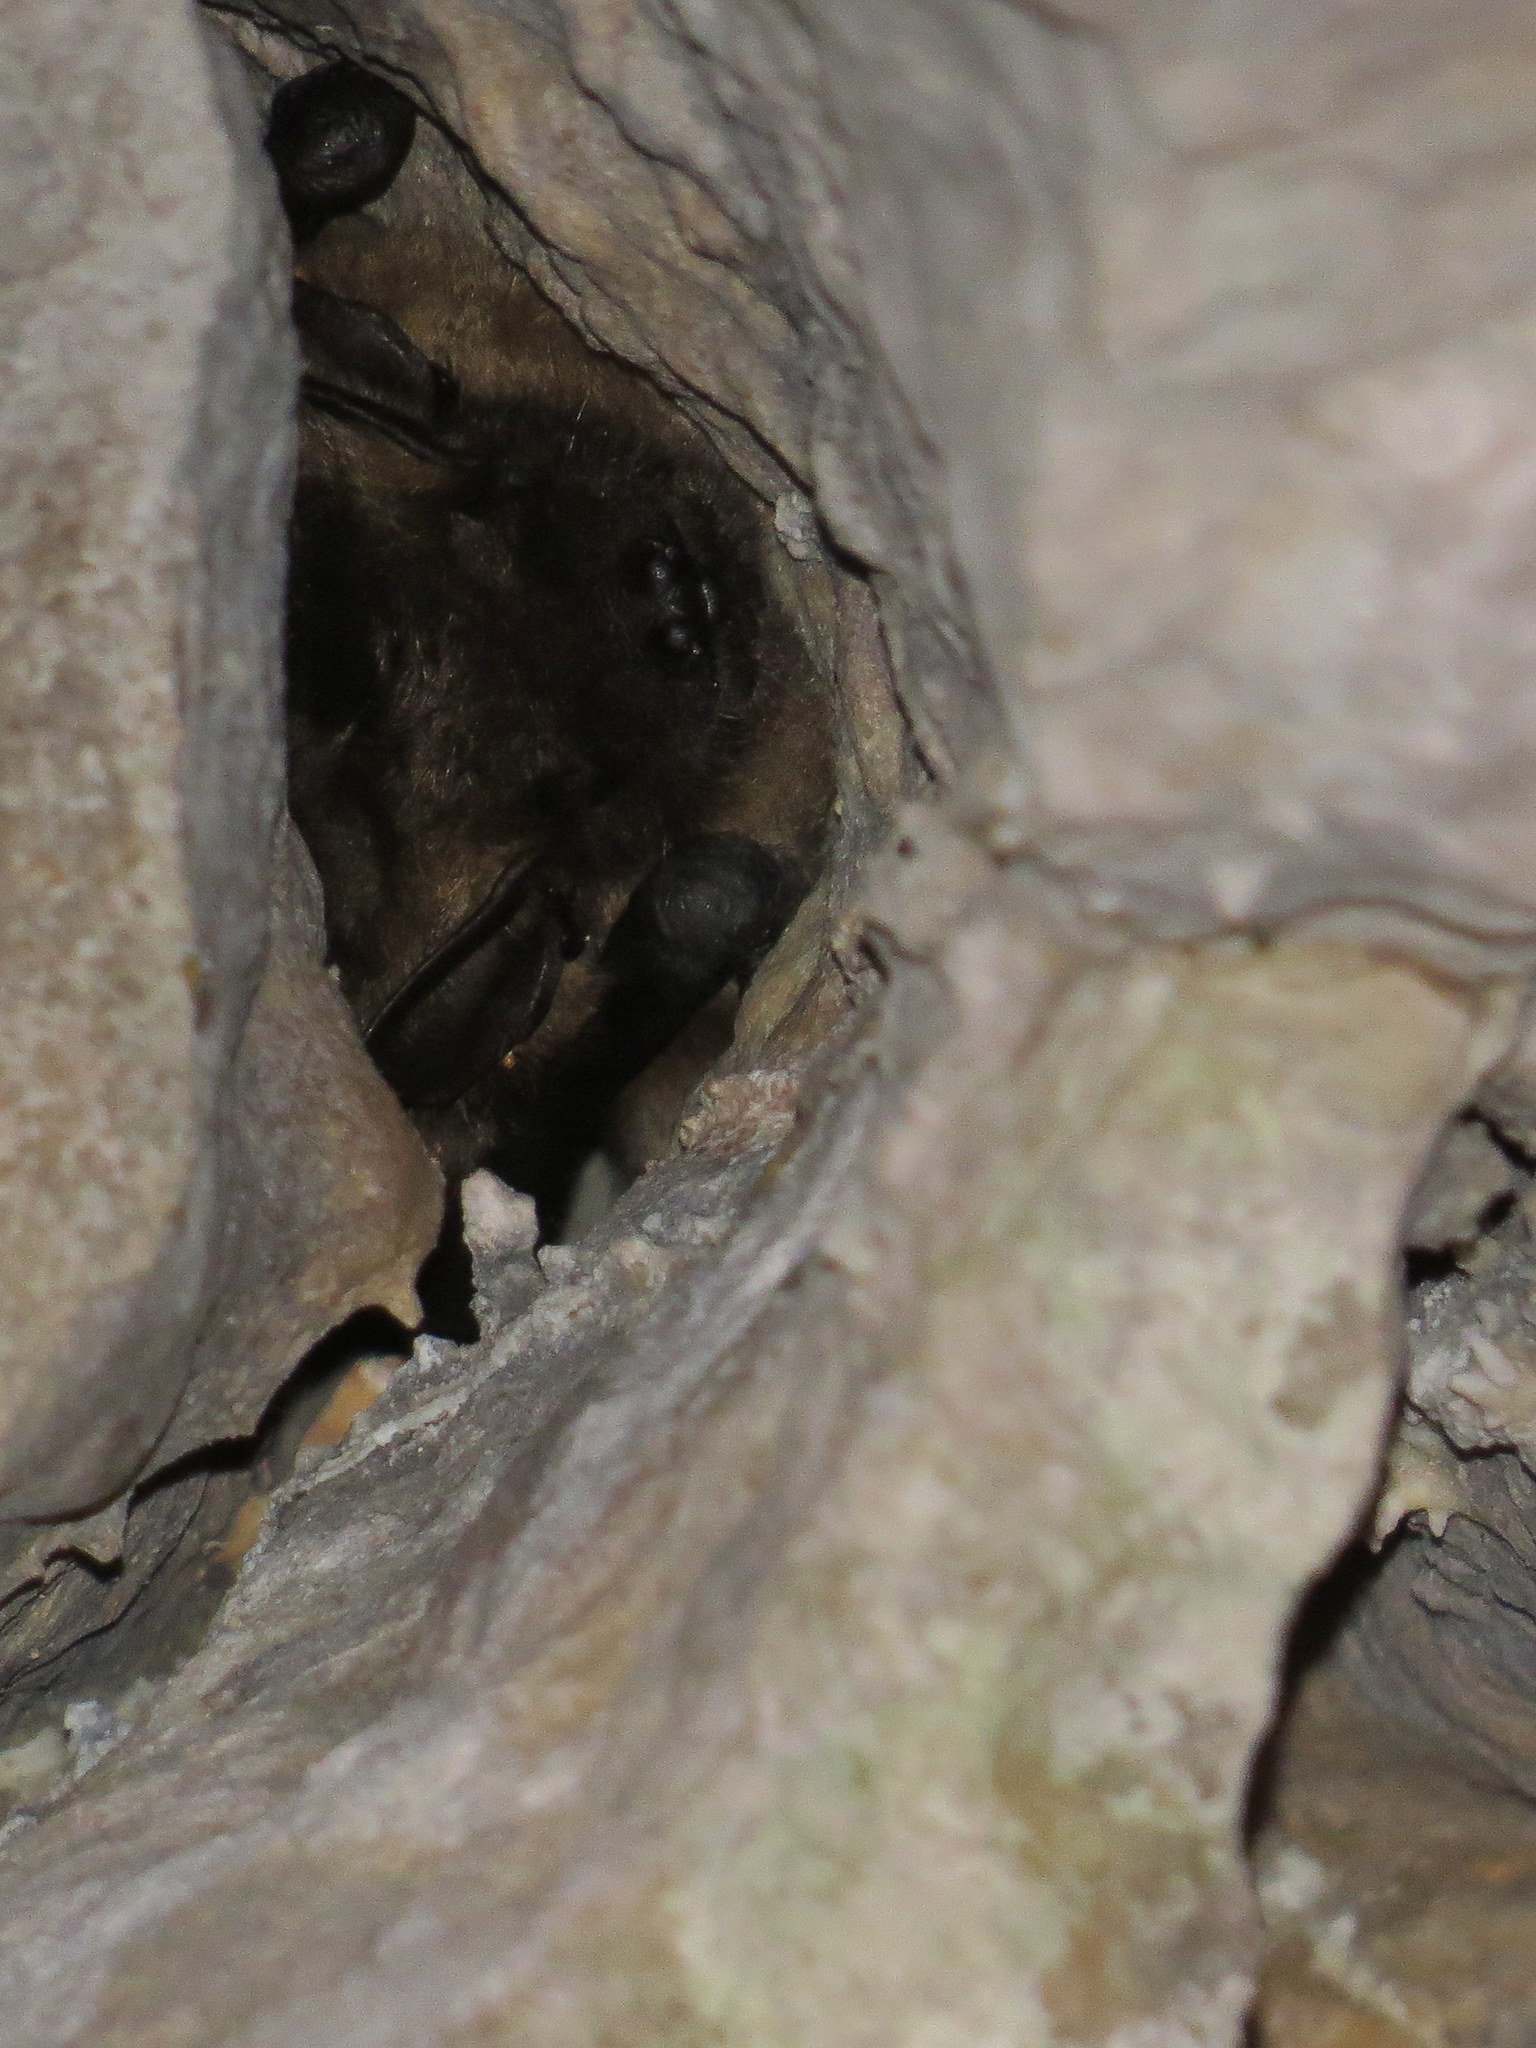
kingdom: Animalia
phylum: Chordata
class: Mammalia
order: Chiroptera
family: Vespertilionidae
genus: Eptesicus
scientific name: Eptesicus serotinus
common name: Serotine
